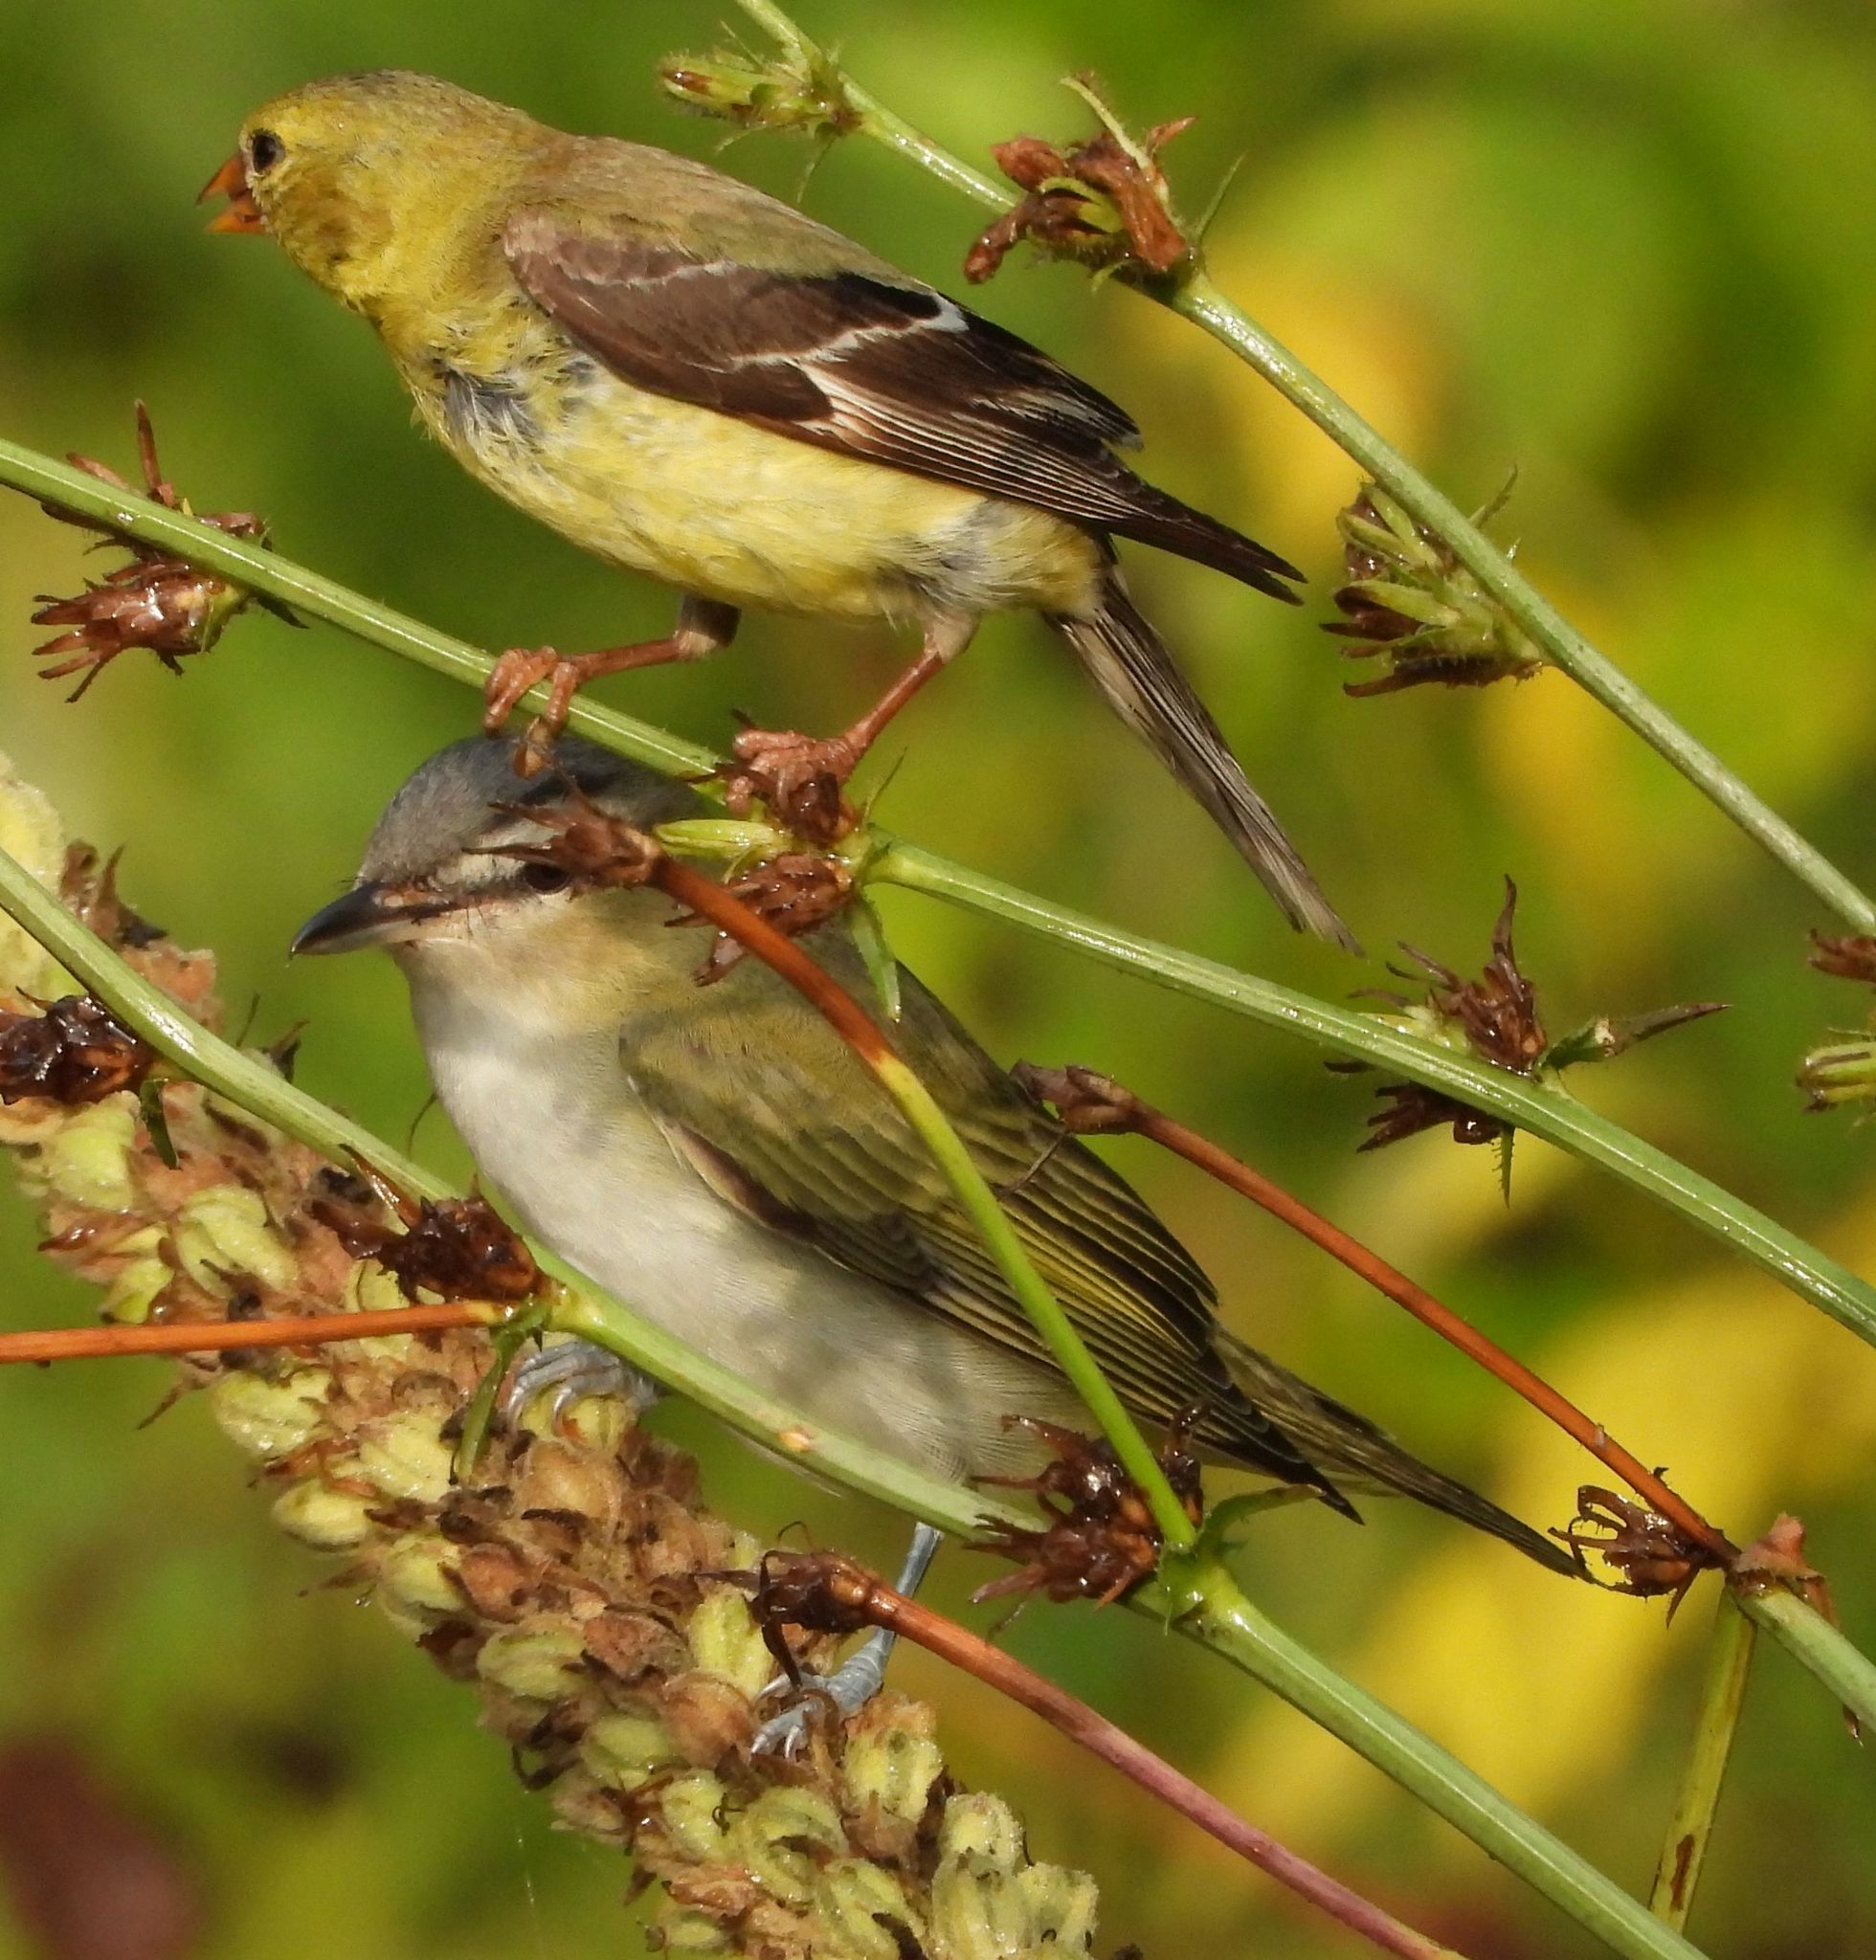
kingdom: Animalia
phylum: Chordata
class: Aves
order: Passeriformes
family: Vireonidae
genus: Vireo
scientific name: Vireo olivaceus
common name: Red-eyed vireo
